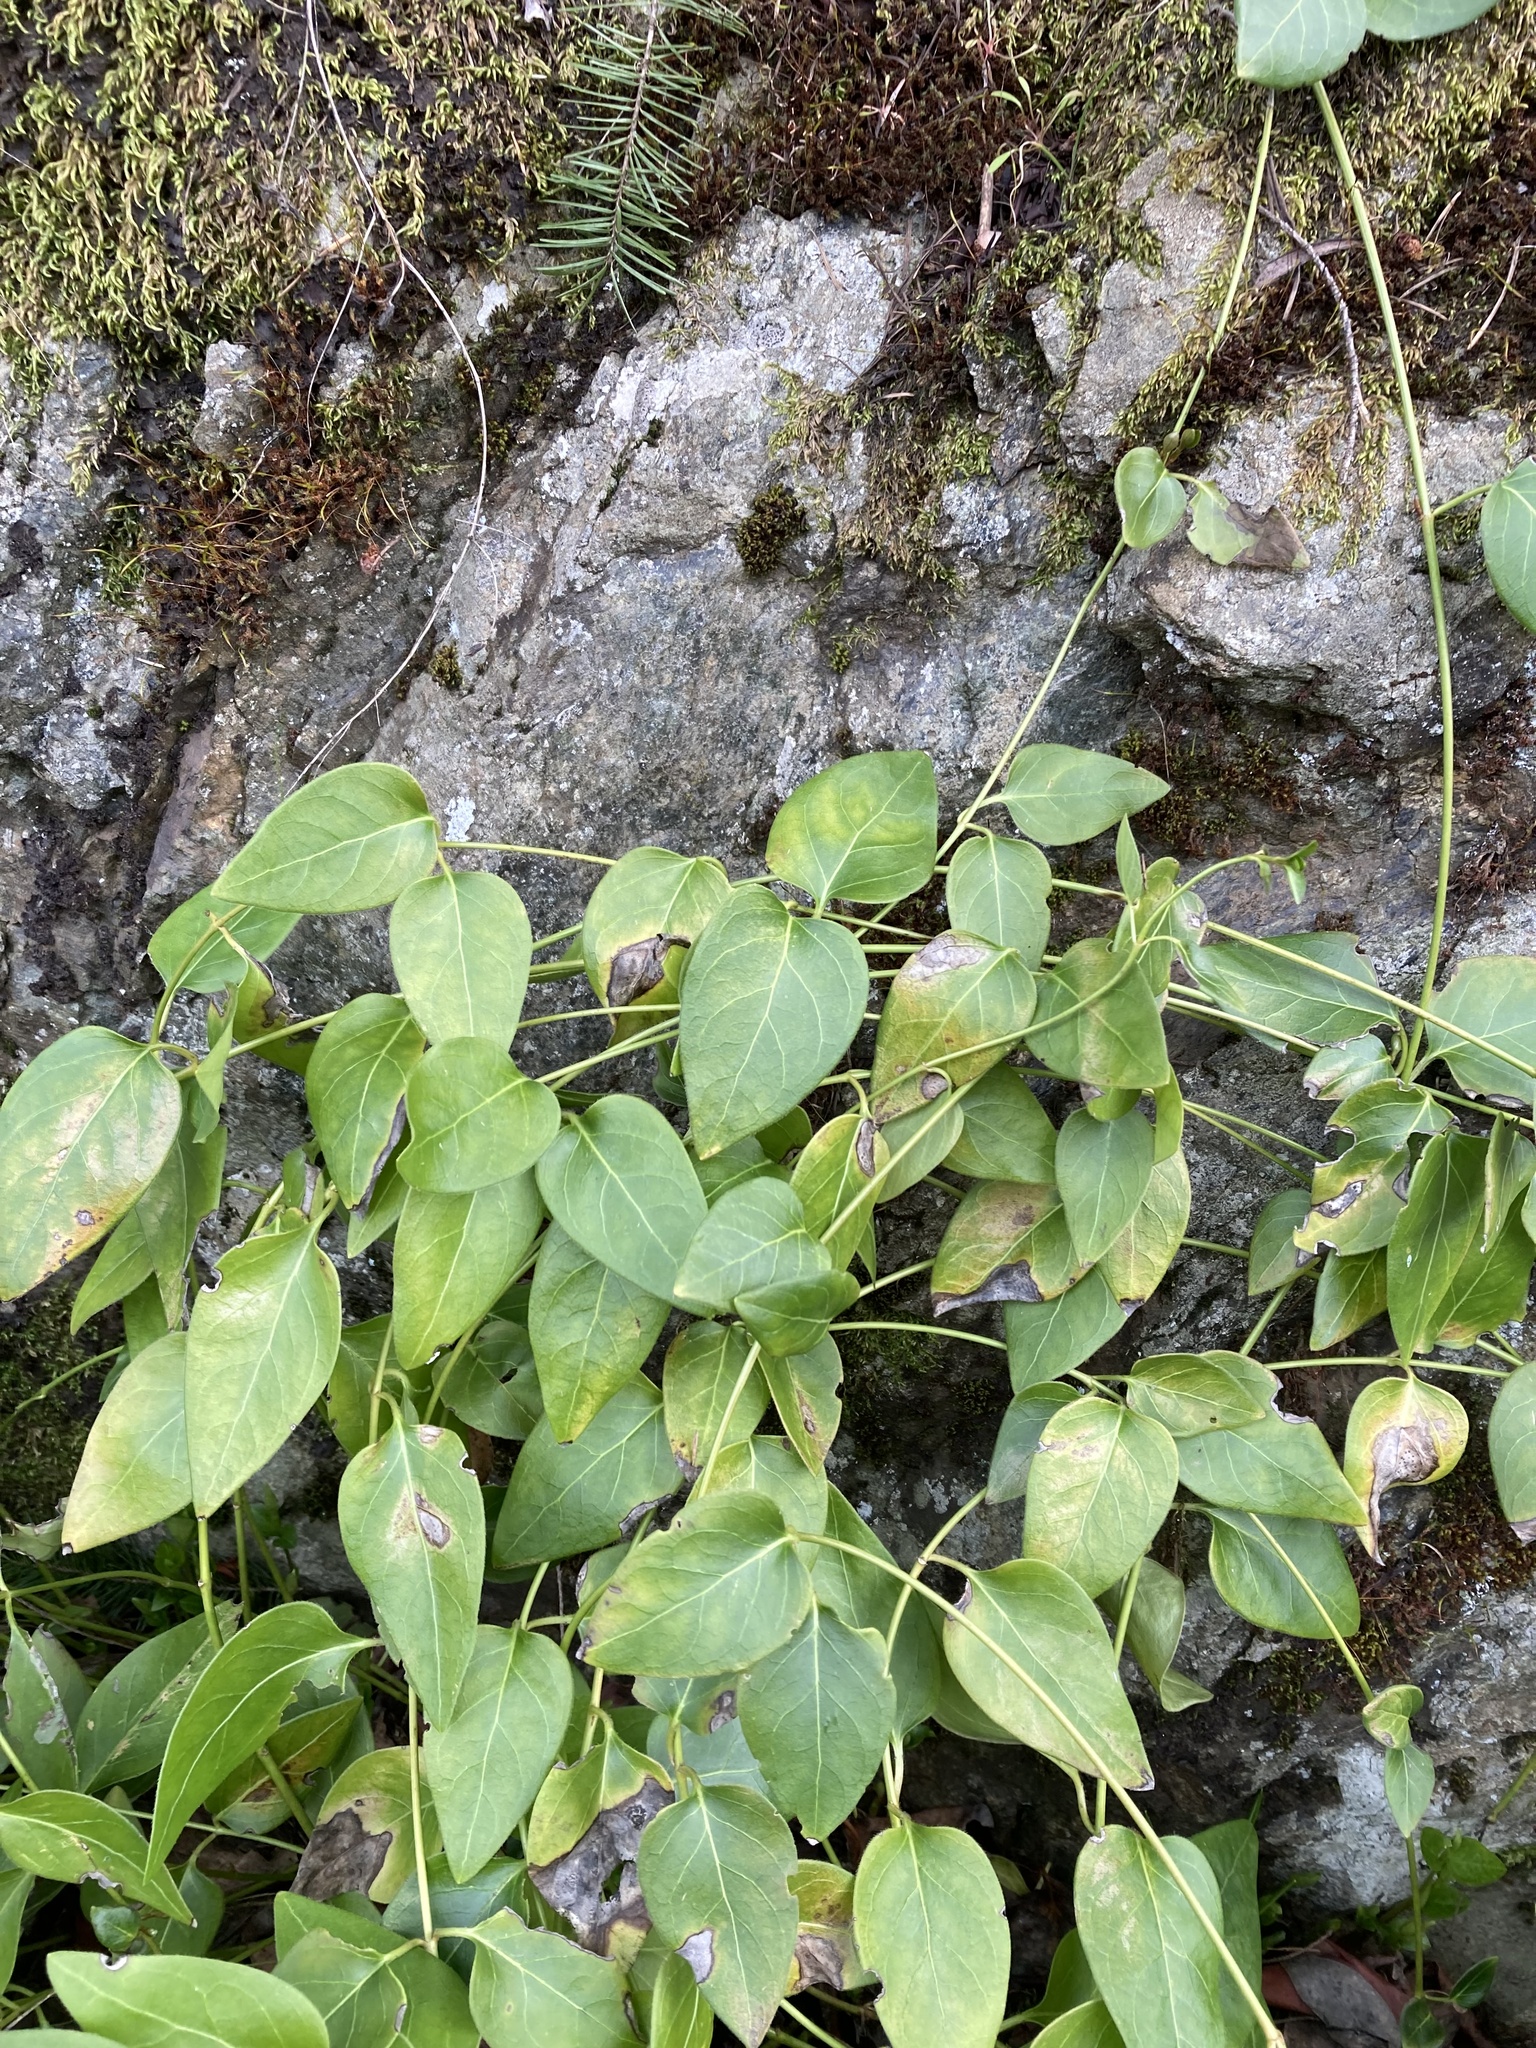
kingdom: Plantae
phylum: Tracheophyta
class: Magnoliopsida
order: Gentianales
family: Apocynaceae
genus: Vinca
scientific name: Vinca major
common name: Greater periwinkle
